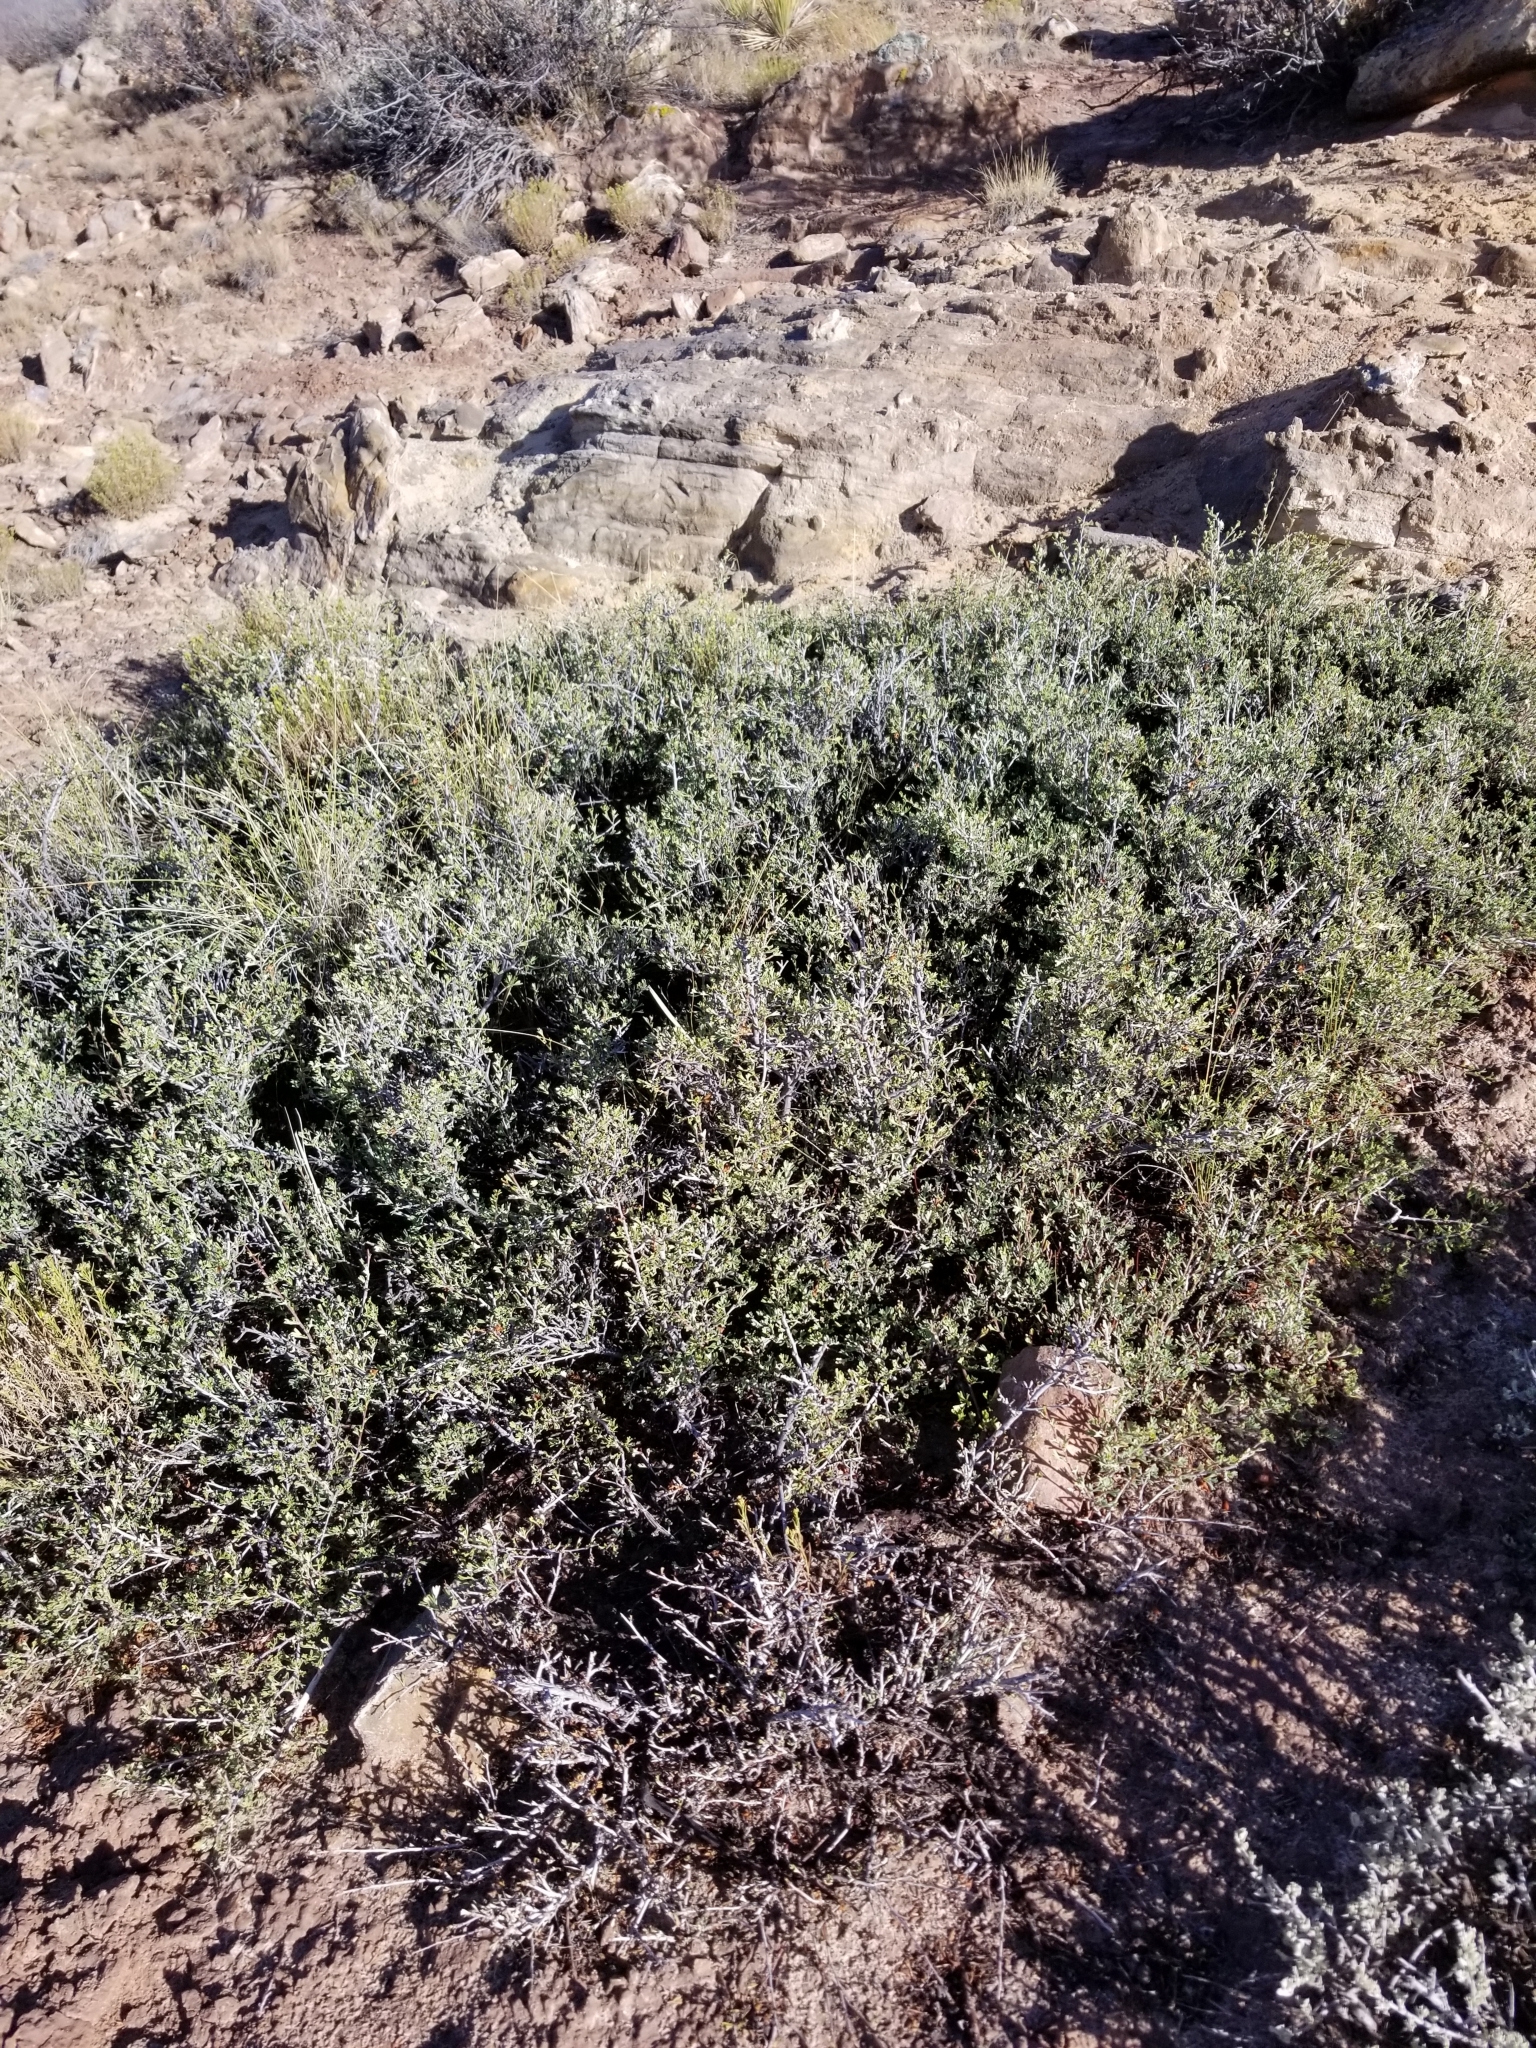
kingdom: Plantae
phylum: Tracheophyta
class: Magnoliopsida
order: Rosales
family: Rosaceae
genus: Purshia
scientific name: Purshia tridentata
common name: Antelope bitterbrush
